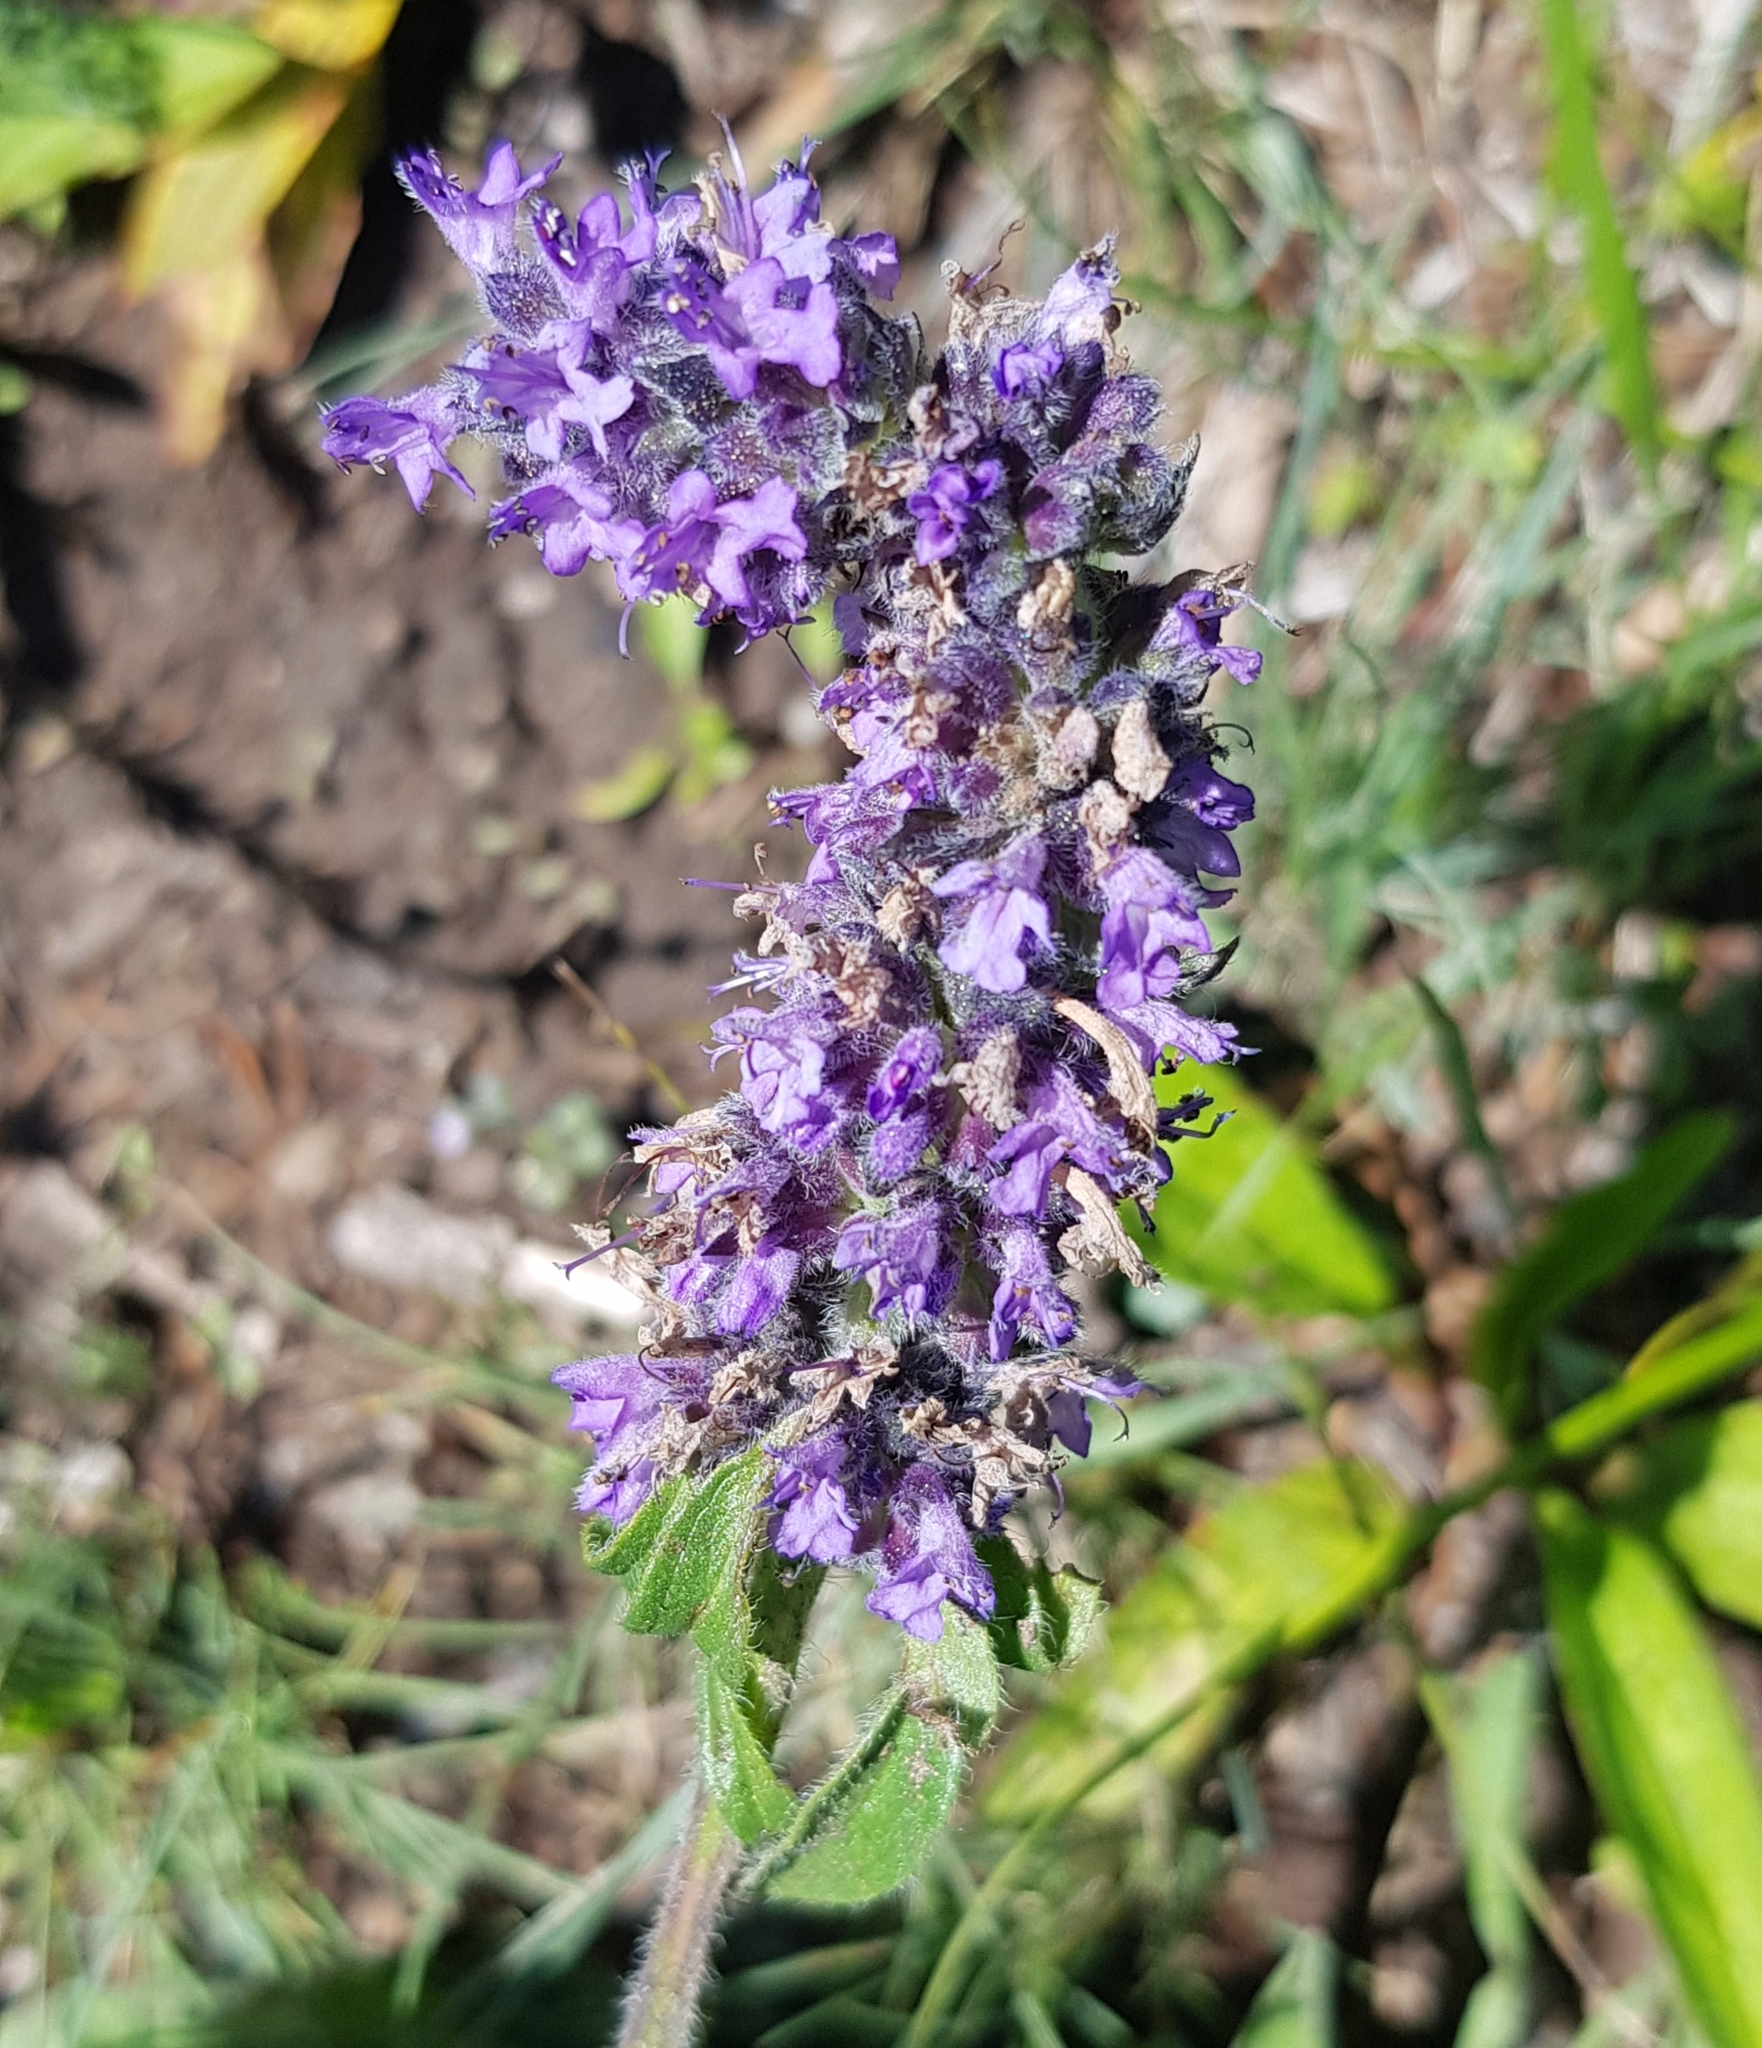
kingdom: Plantae
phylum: Tracheophyta
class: Magnoliopsida
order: Lamiales
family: Lamiaceae
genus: Nepeta
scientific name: Nepeta multifida
